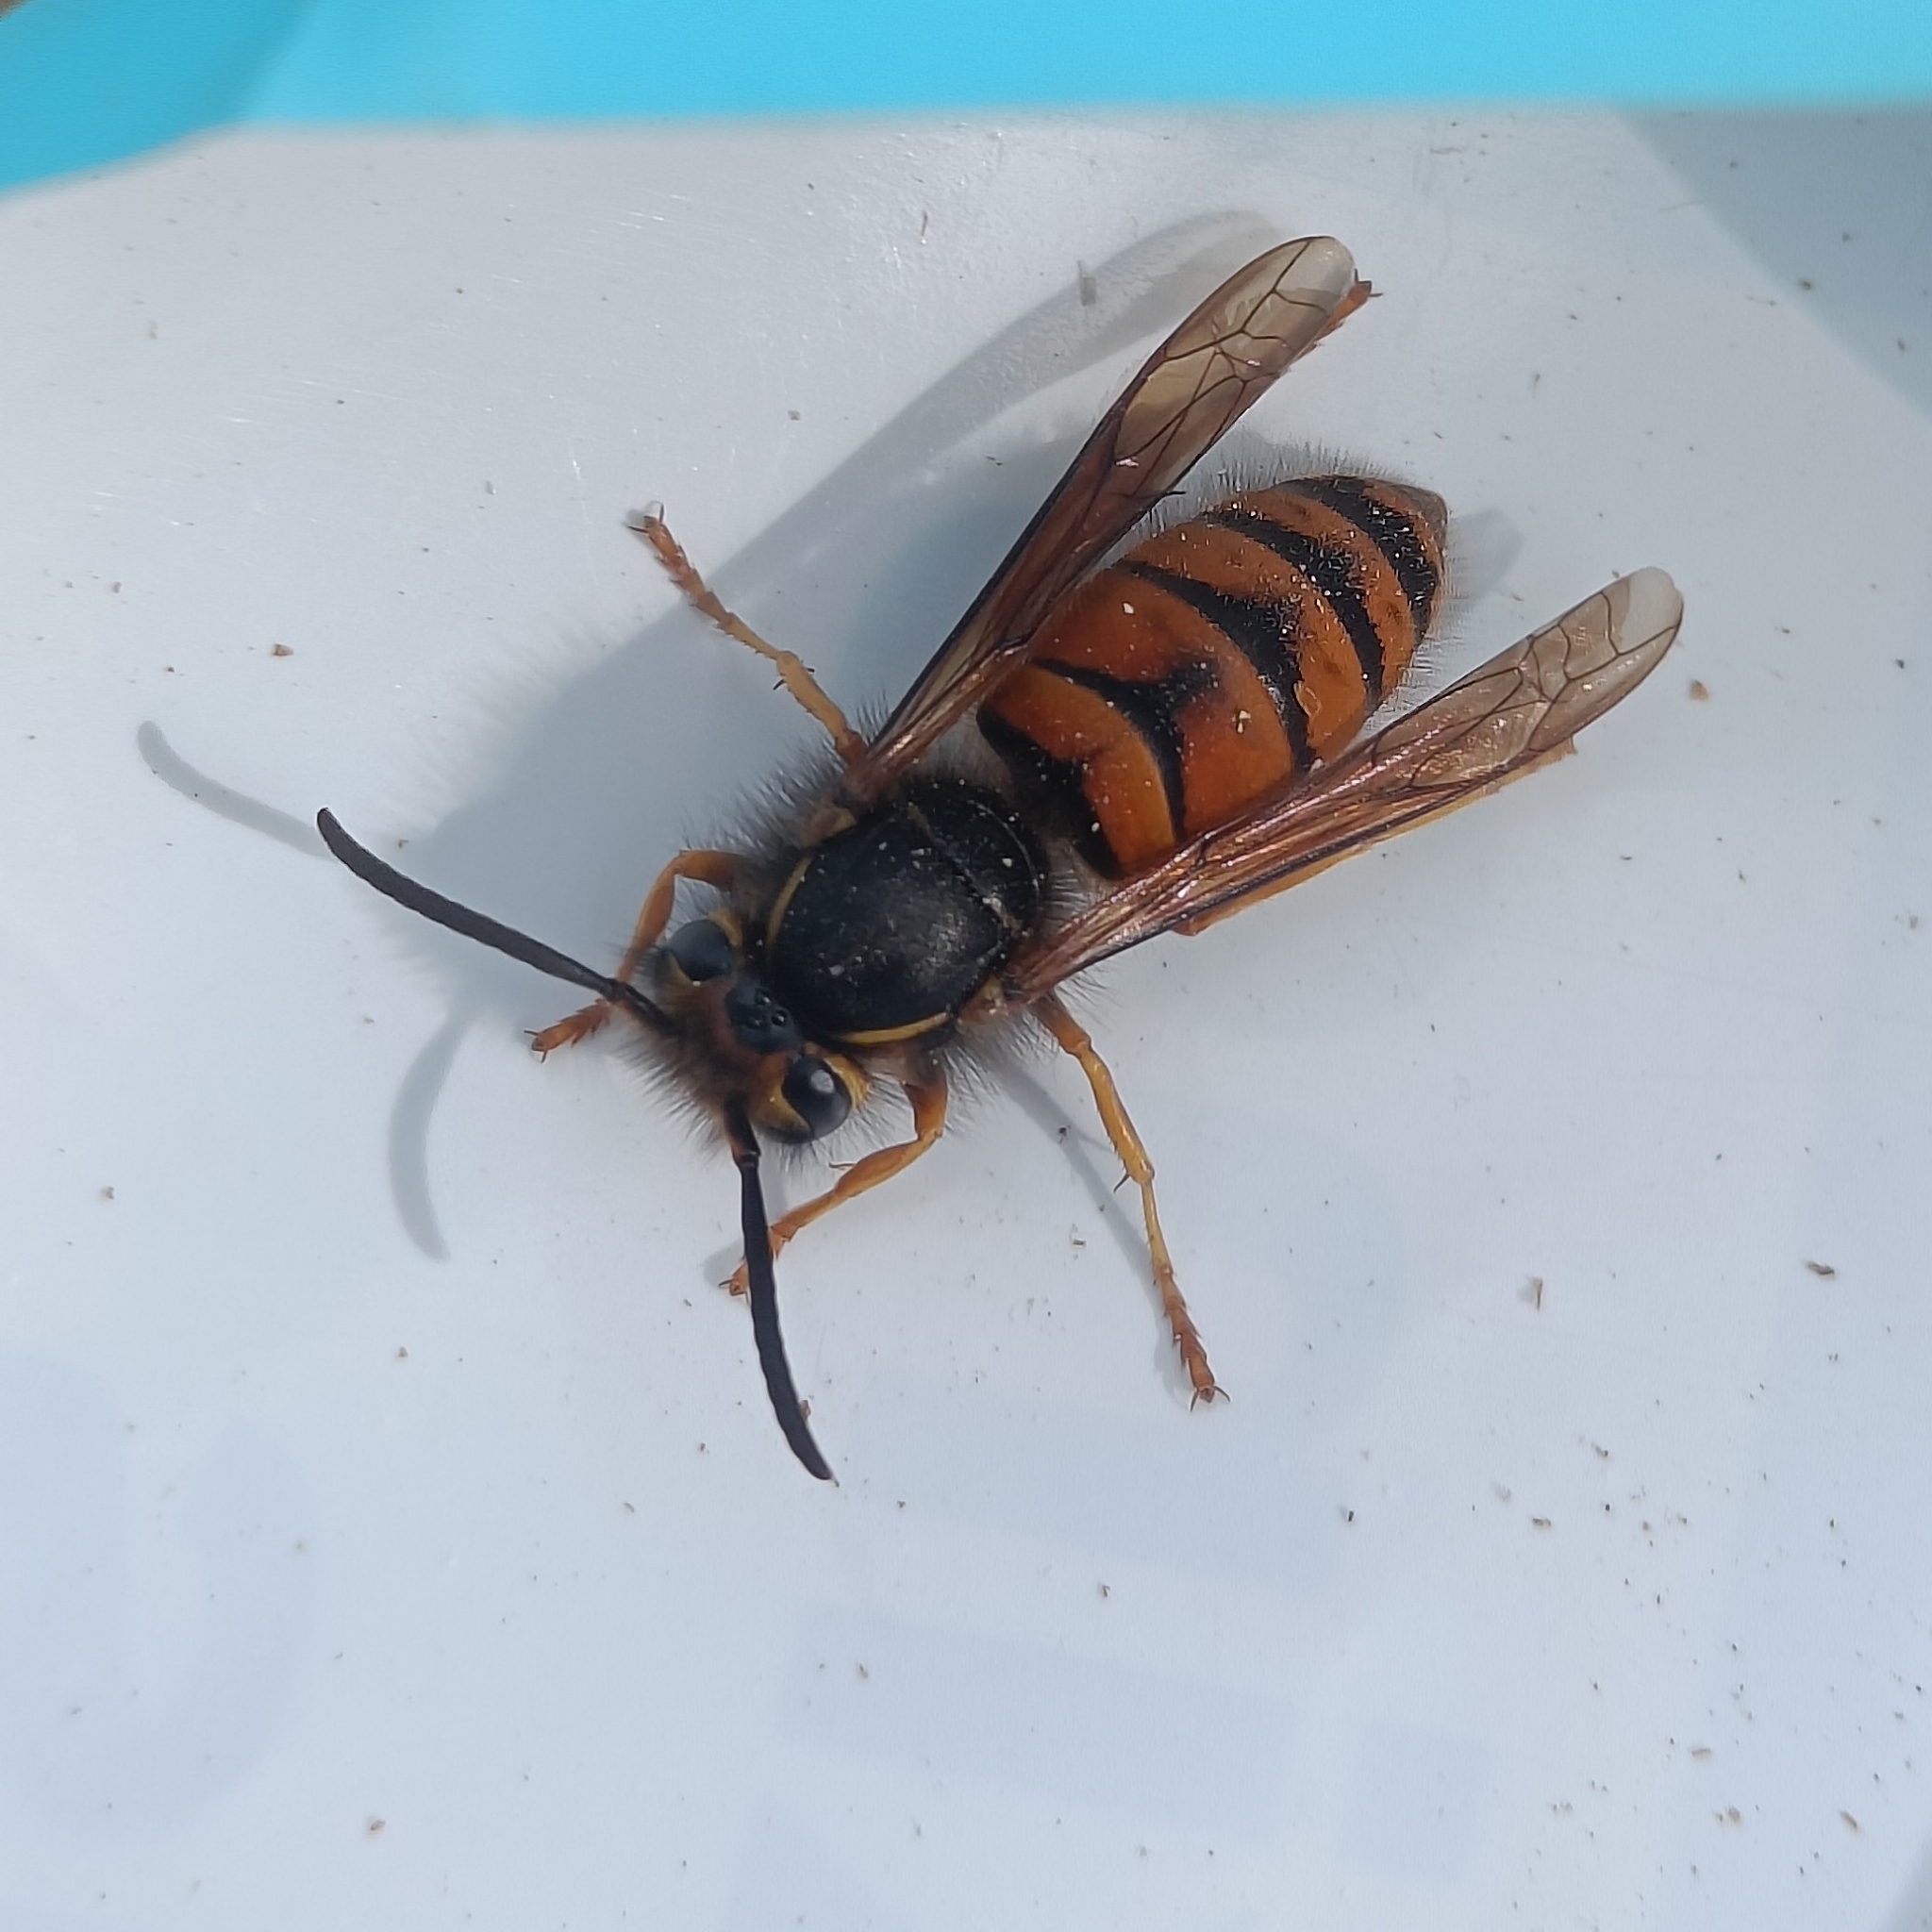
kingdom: Animalia
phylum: Arthropoda
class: Insecta
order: Hymenoptera
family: Vespidae
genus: Vespula
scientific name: Vespula structor
